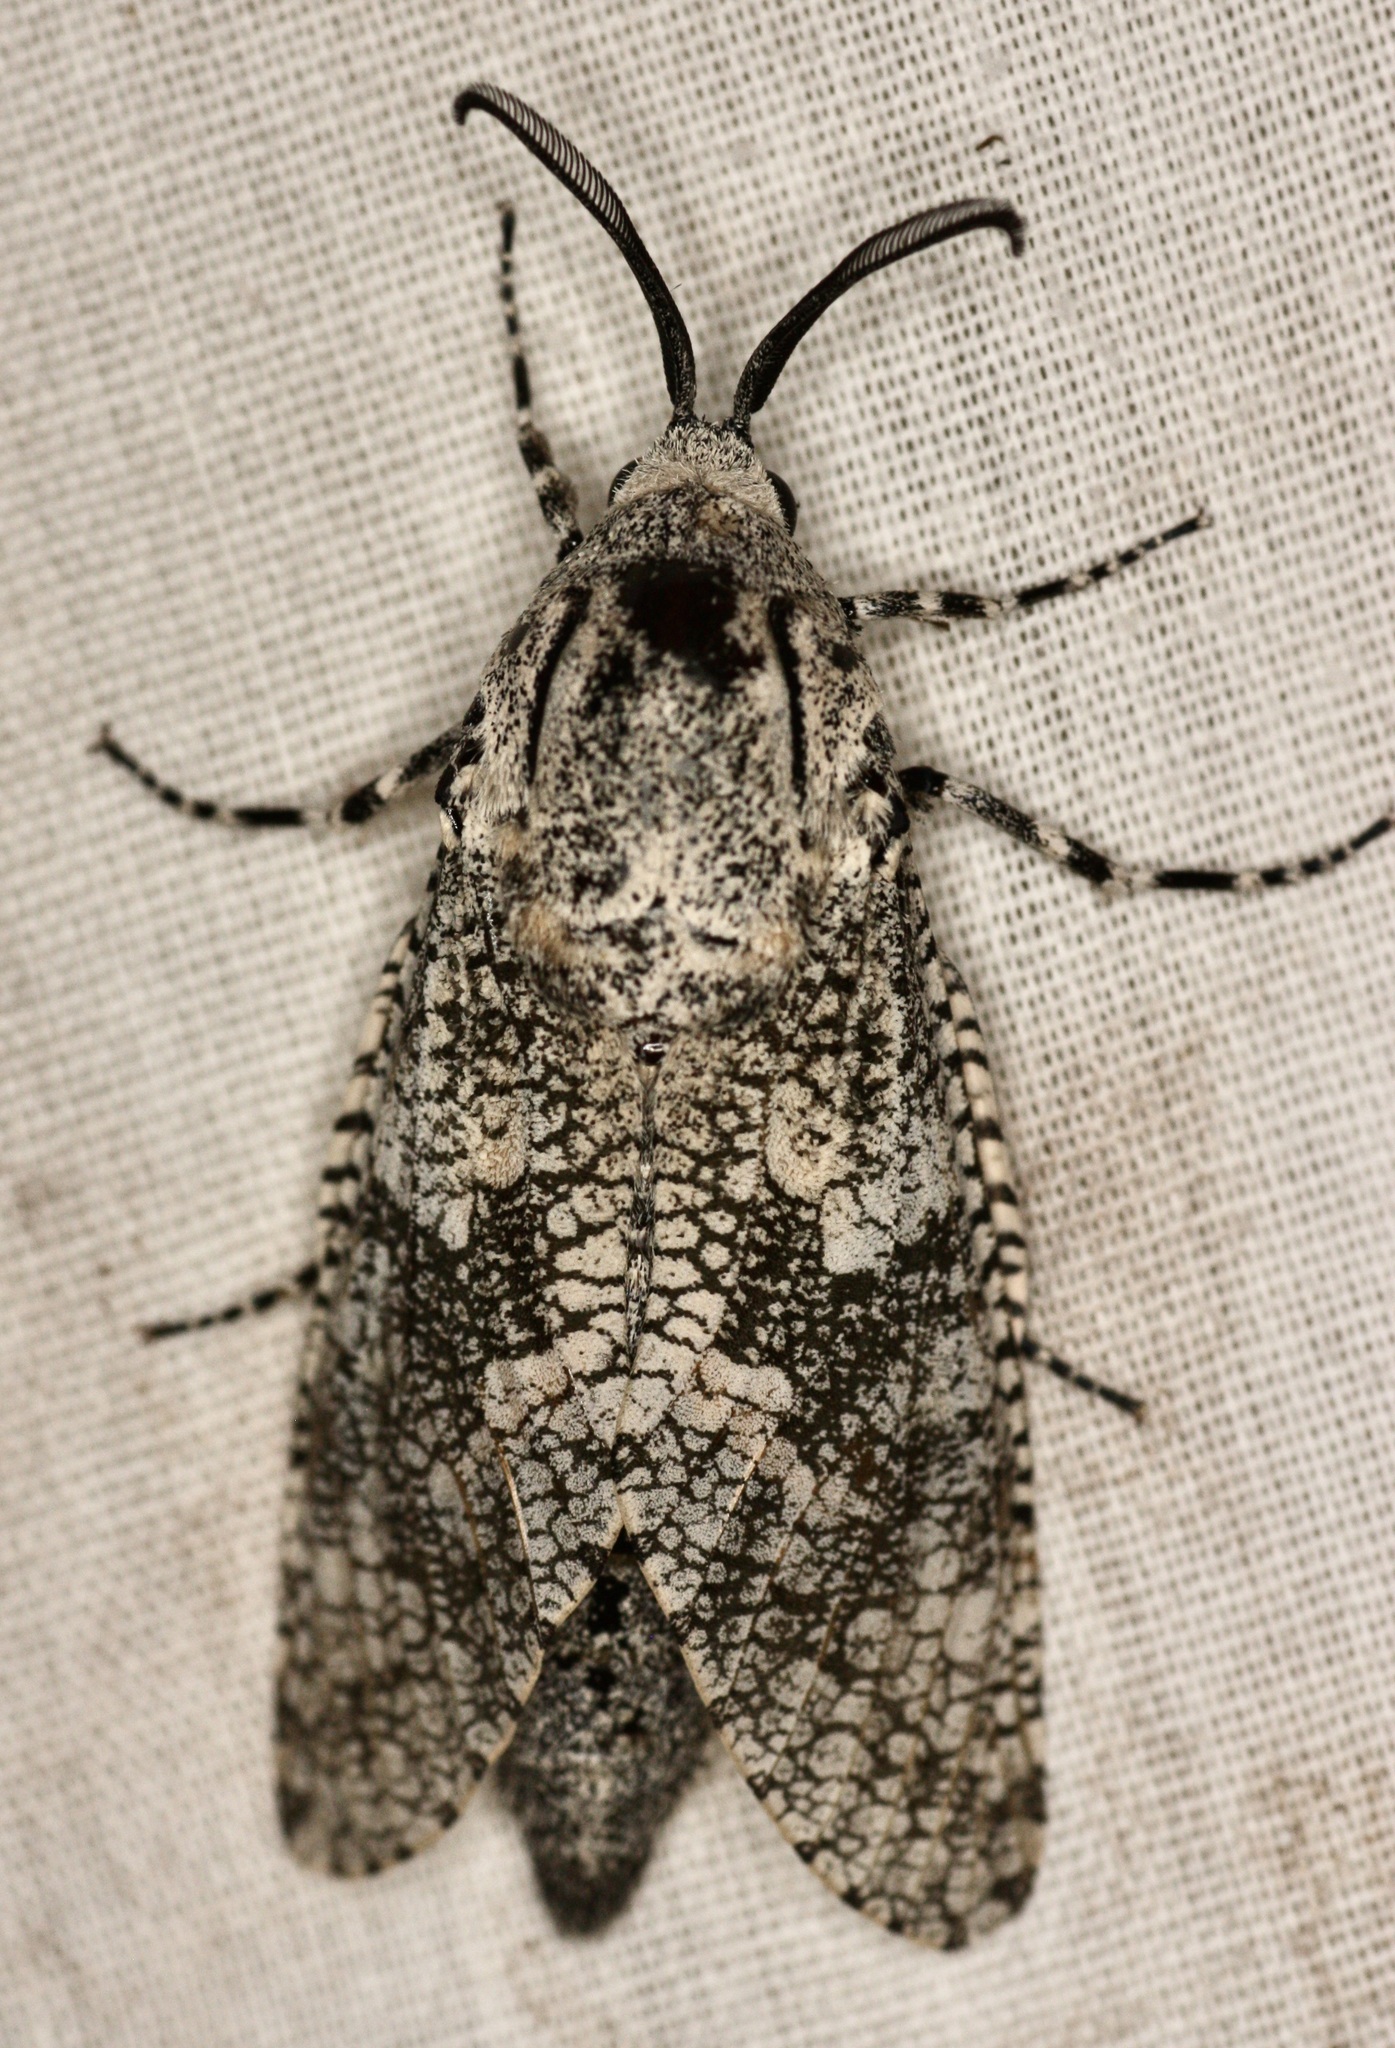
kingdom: Animalia
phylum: Arthropoda
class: Insecta
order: Lepidoptera
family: Cossidae
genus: Prionoxystus
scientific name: Prionoxystus robiniae
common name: Carpenterworm
